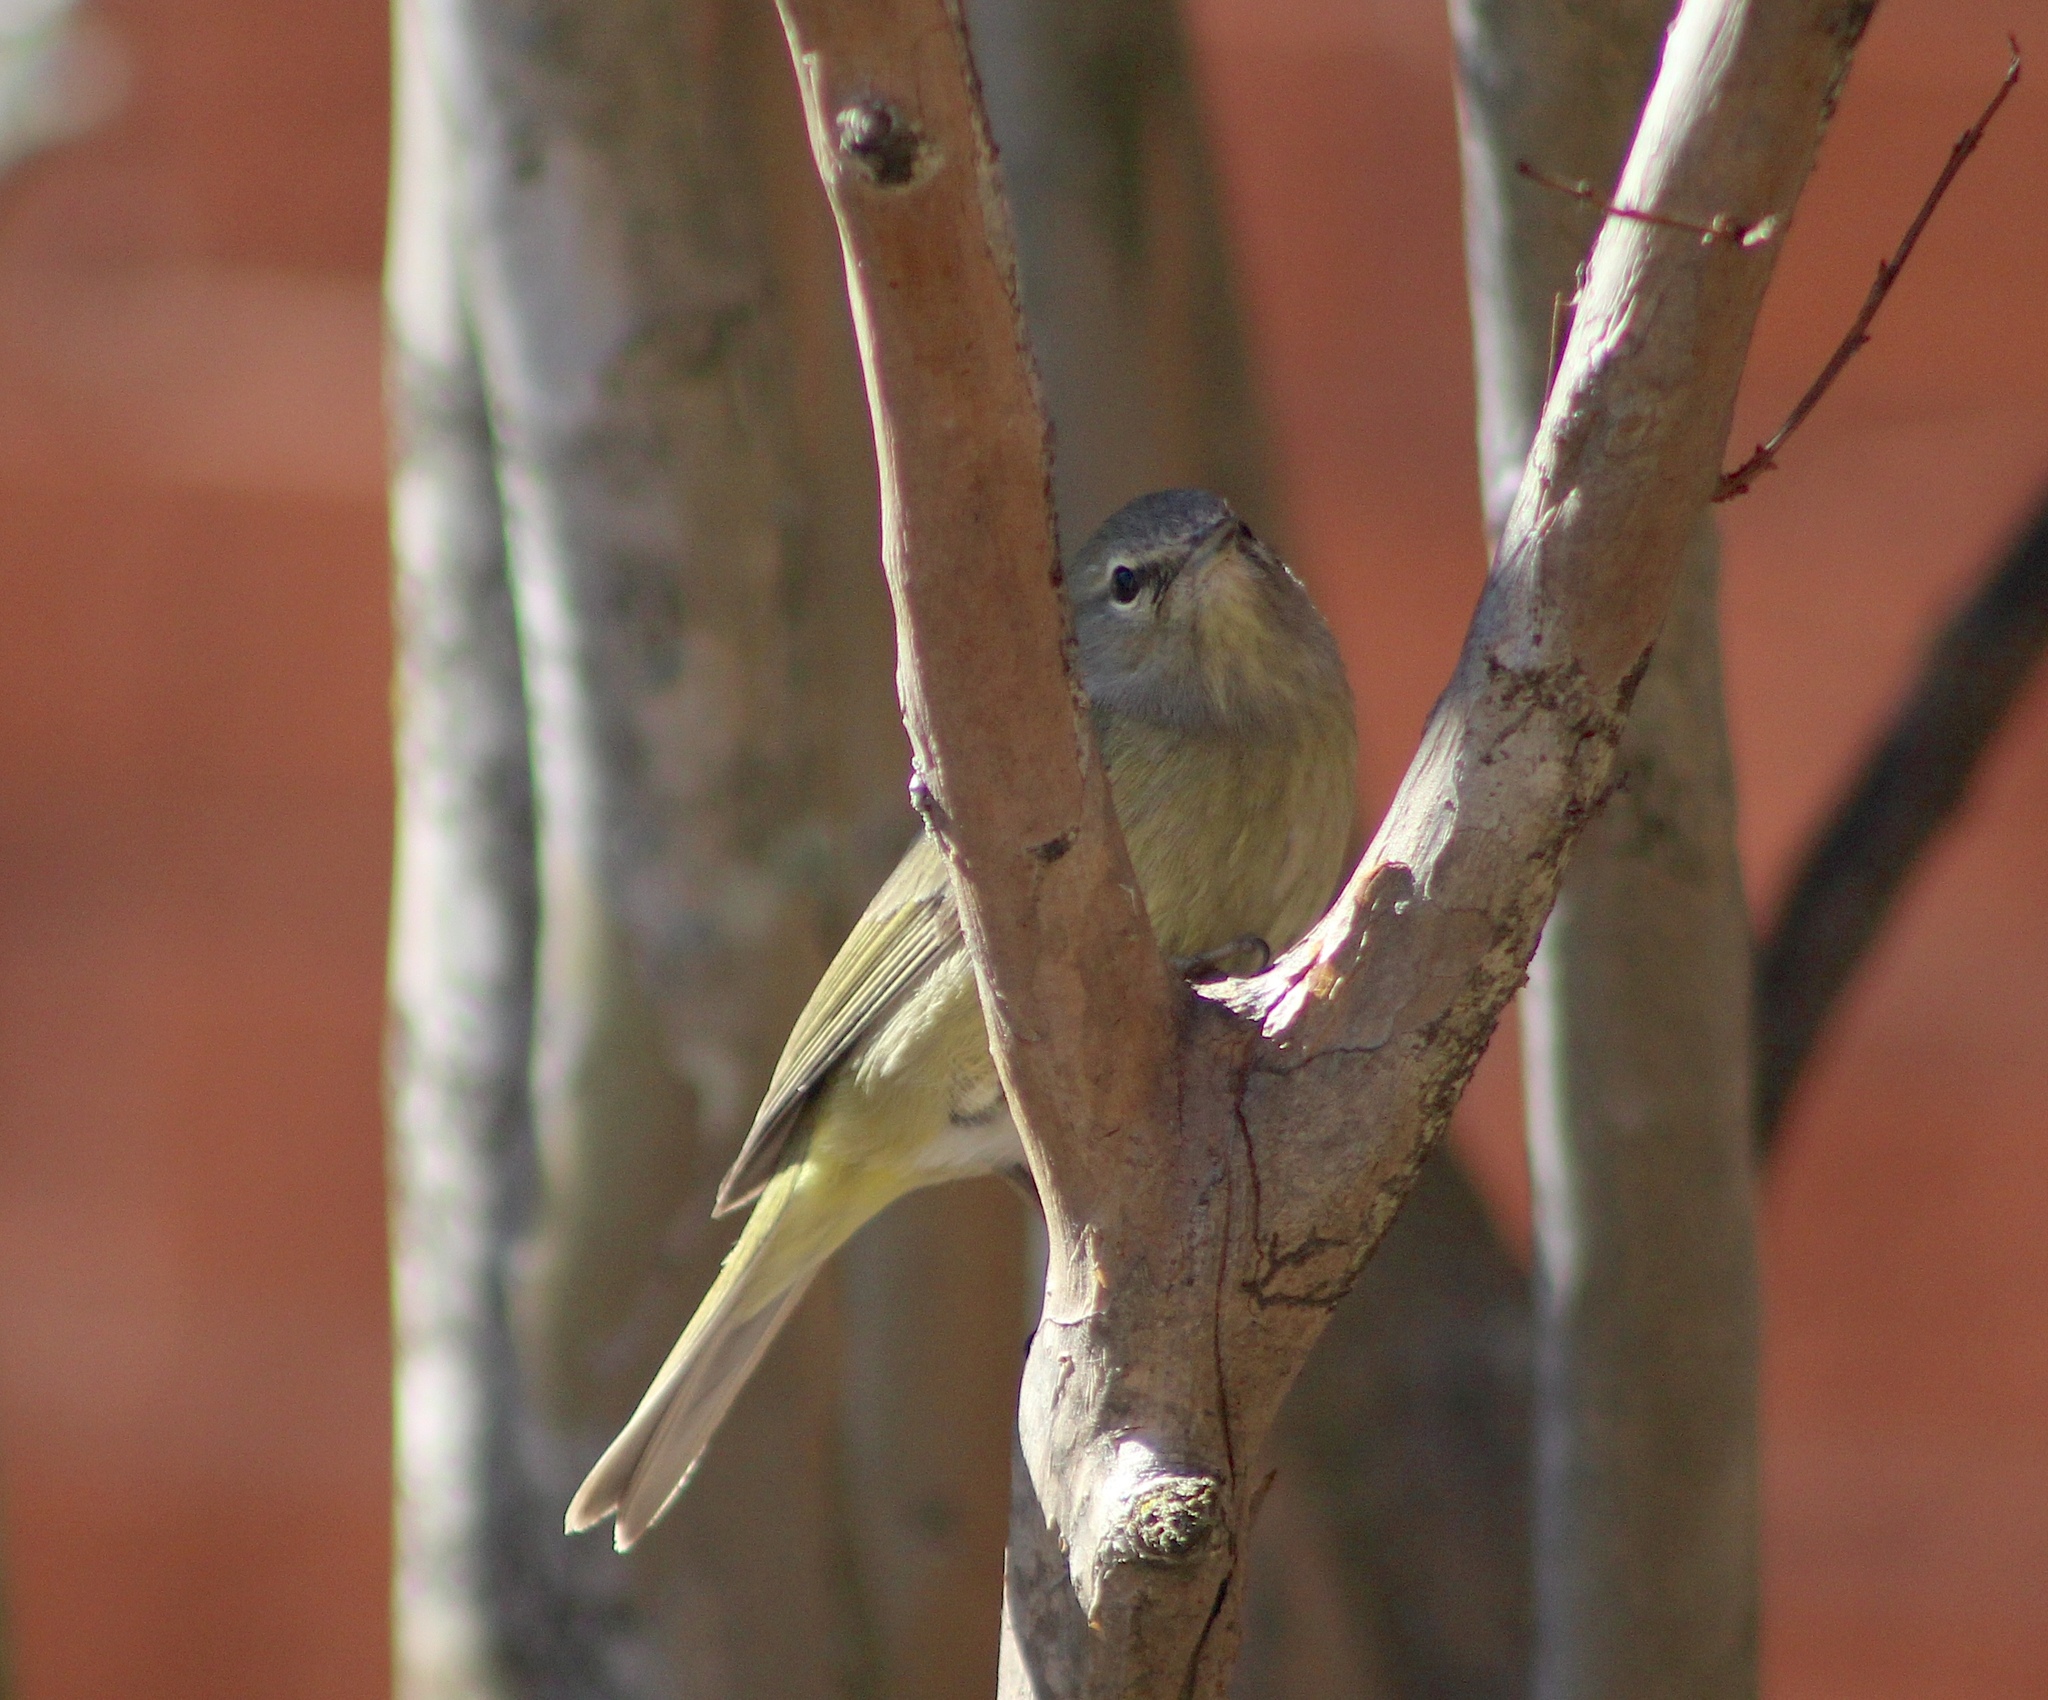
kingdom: Animalia
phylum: Chordata
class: Aves
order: Passeriformes
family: Parulidae
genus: Leiothlypis
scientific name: Leiothlypis celata
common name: Orange-crowned warbler
